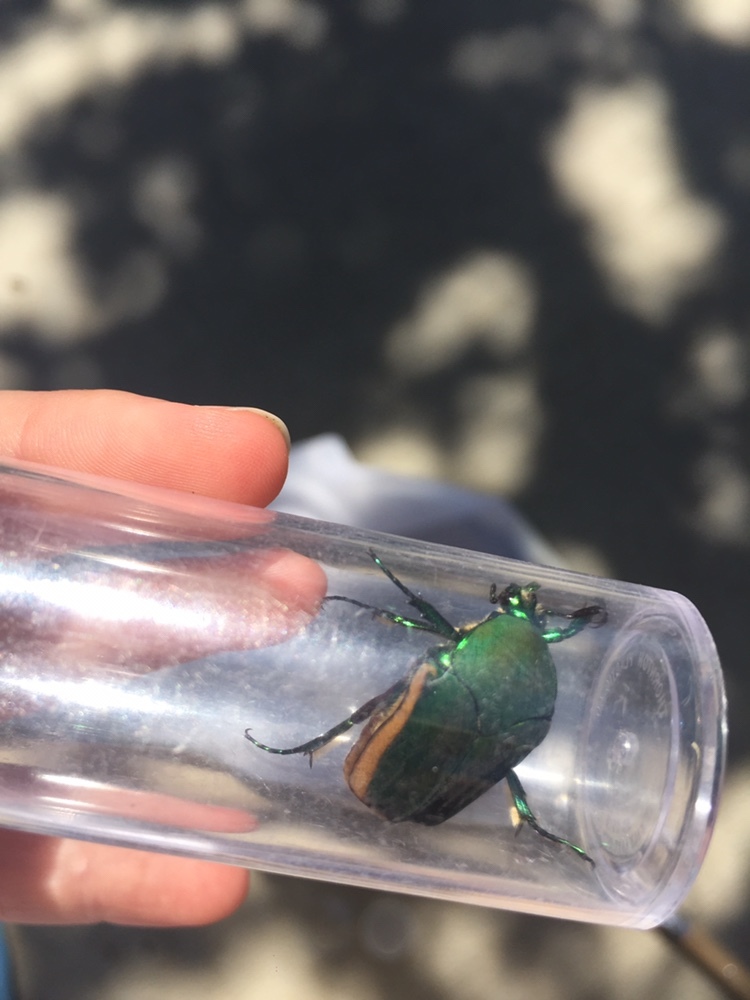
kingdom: Animalia
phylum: Arthropoda
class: Insecta
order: Coleoptera
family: Scarabaeidae
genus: Cotinis
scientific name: Cotinis mutabilis
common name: Figeater beetle
